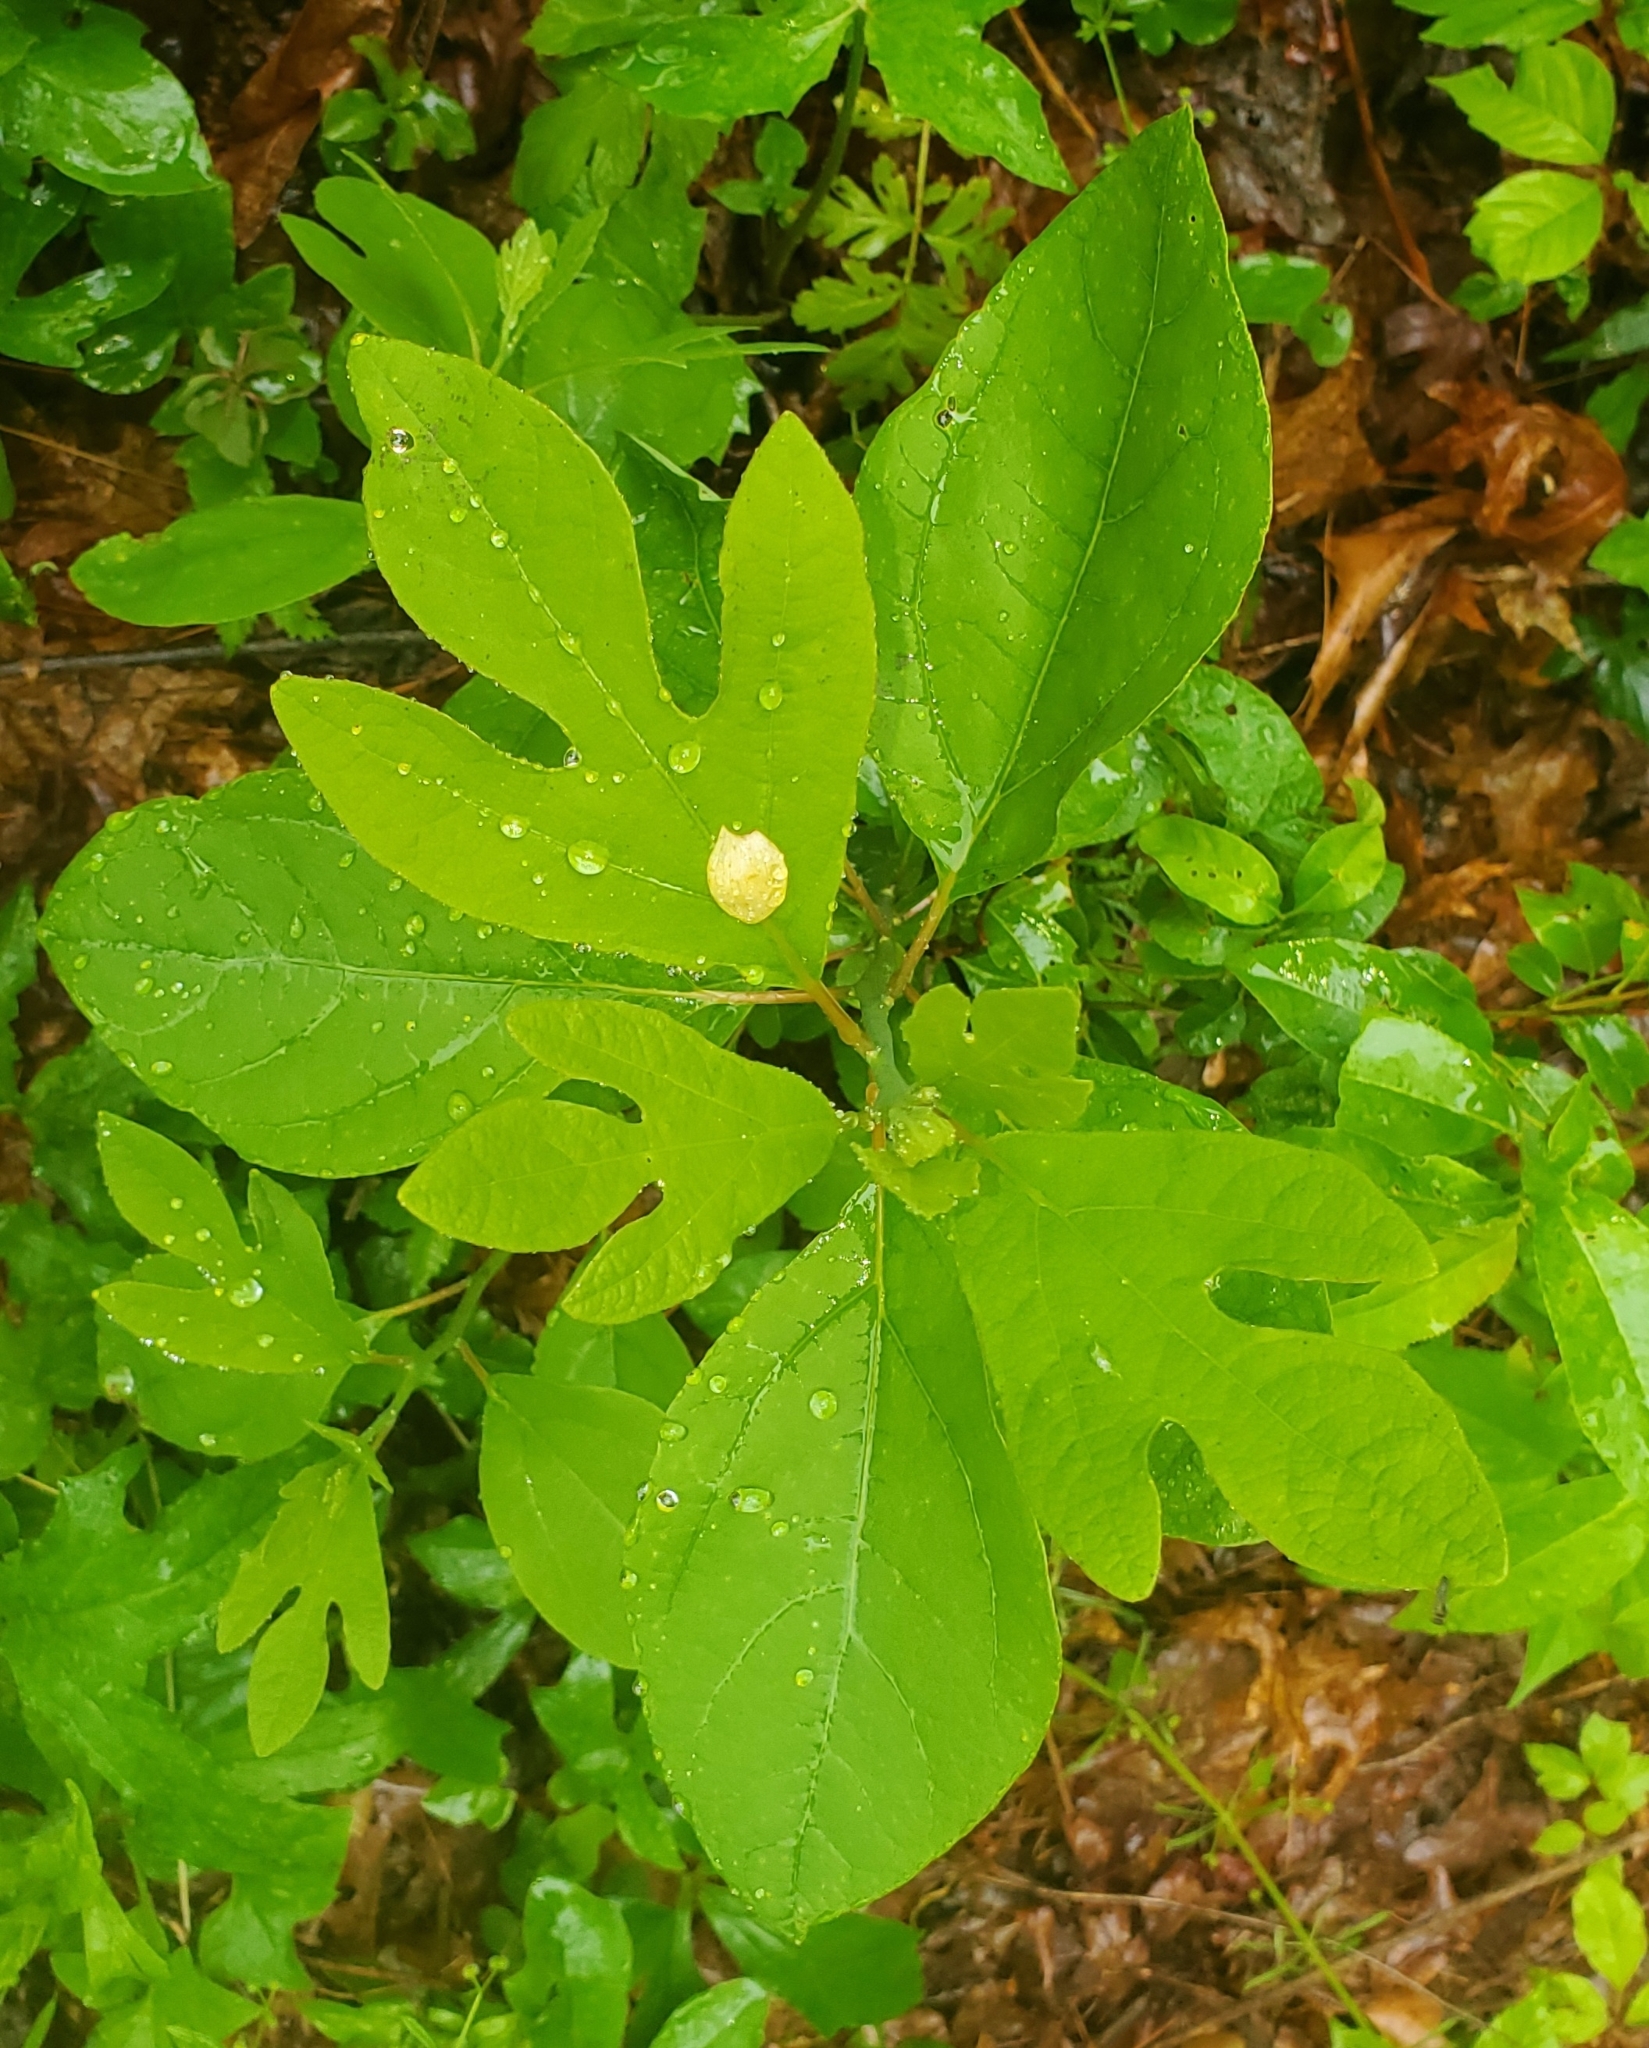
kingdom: Plantae
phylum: Tracheophyta
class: Magnoliopsida
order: Laurales
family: Lauraceae
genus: Sassafras
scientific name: Sassafras albidum
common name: Sassafras
